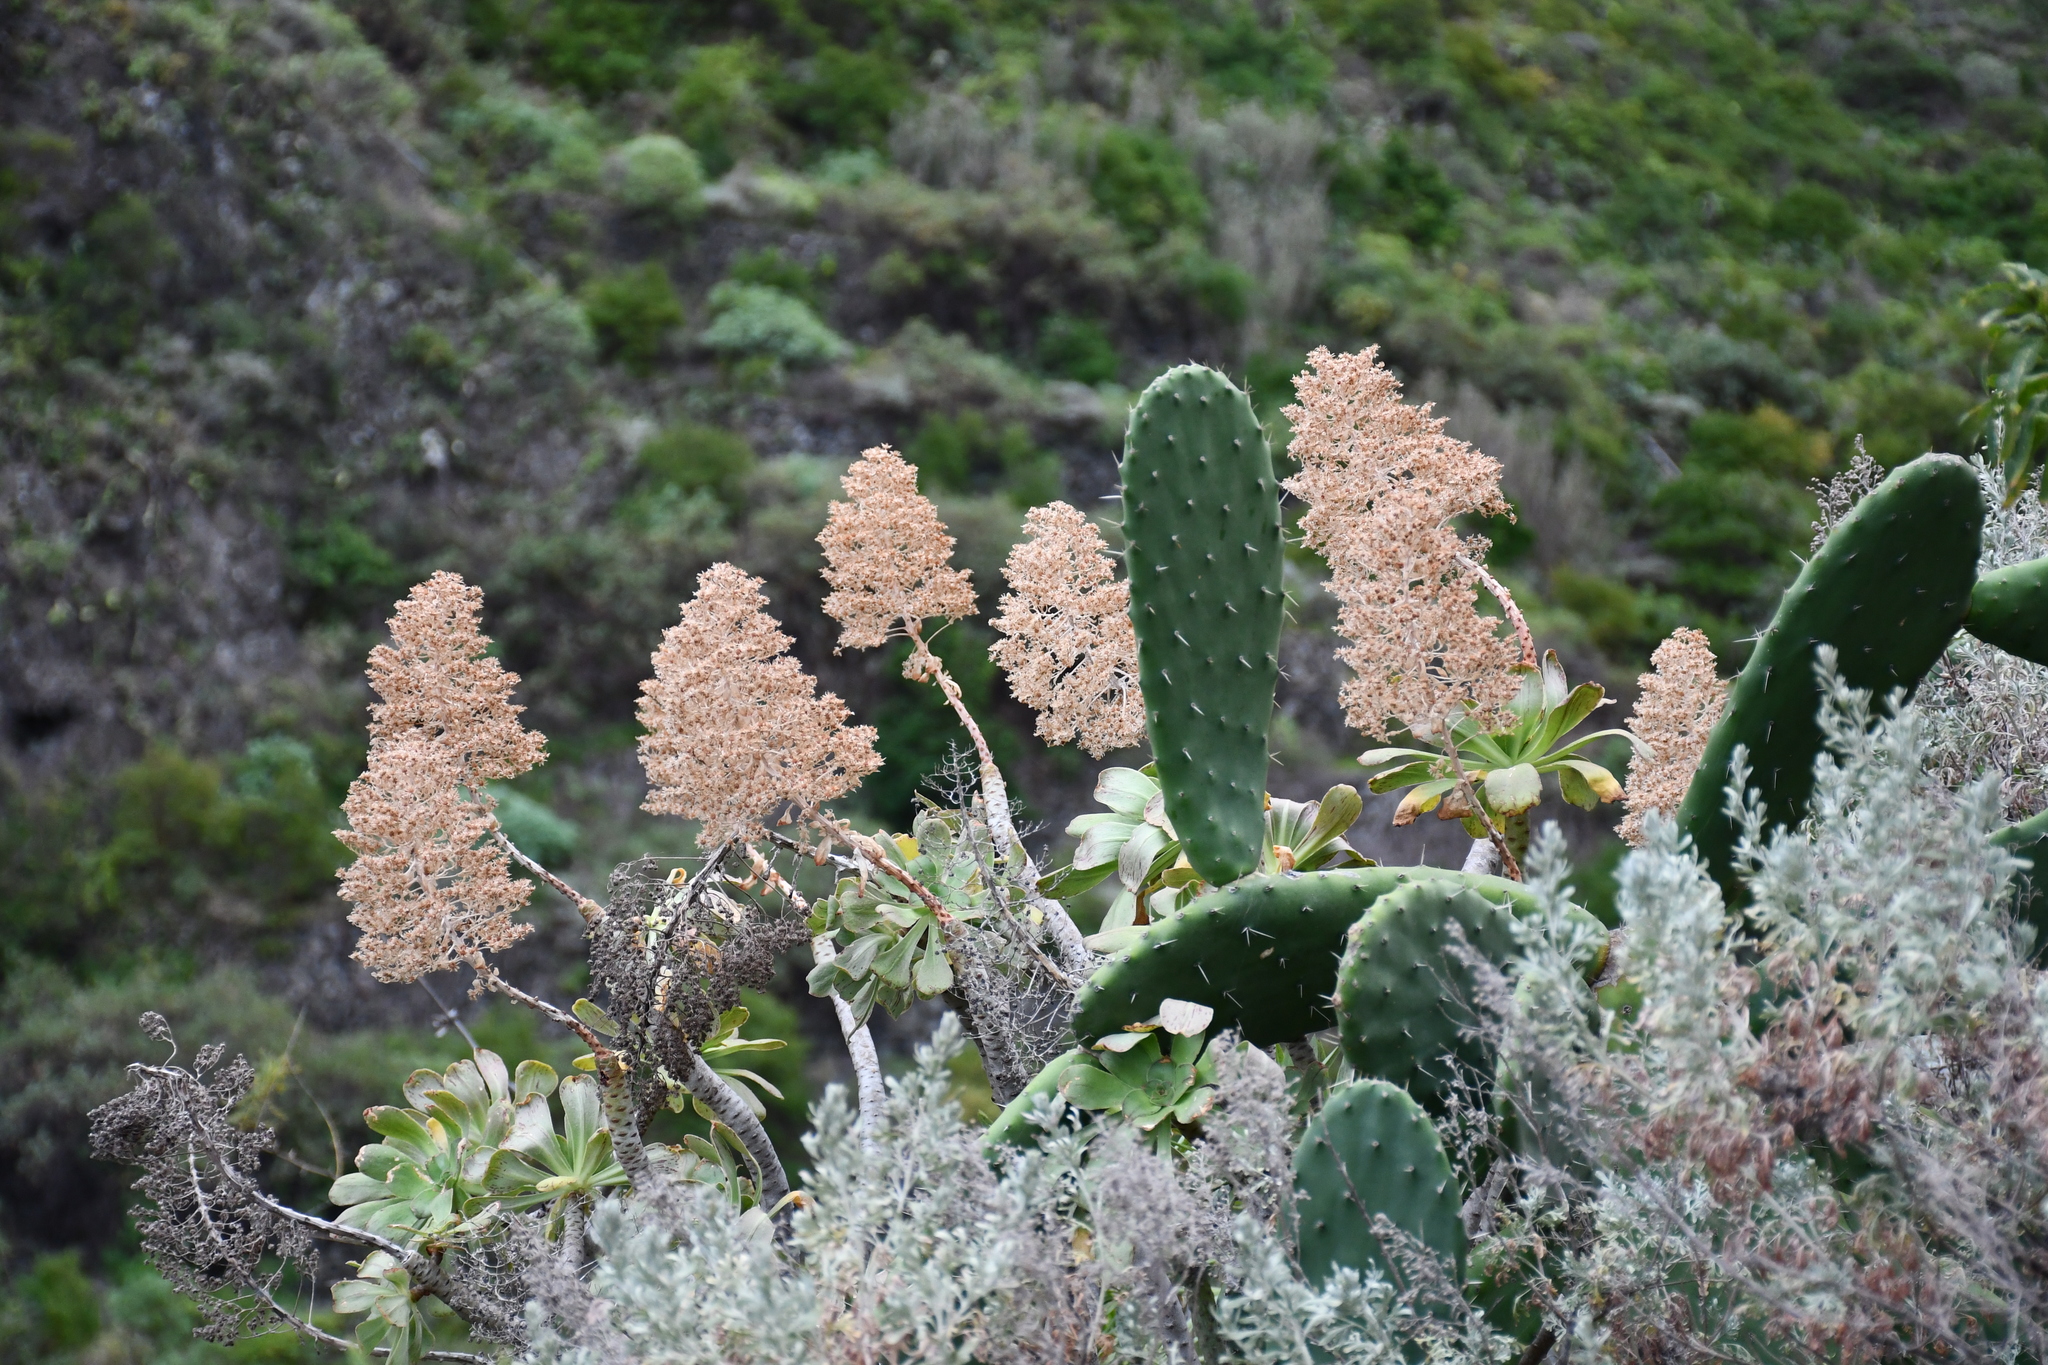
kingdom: Plantae
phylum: Tracheophyta
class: Magnoliopsida
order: Saxifragales
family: Crassulaceae
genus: Aeonium
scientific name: Aeonium arboreum
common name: Tree aeonium
